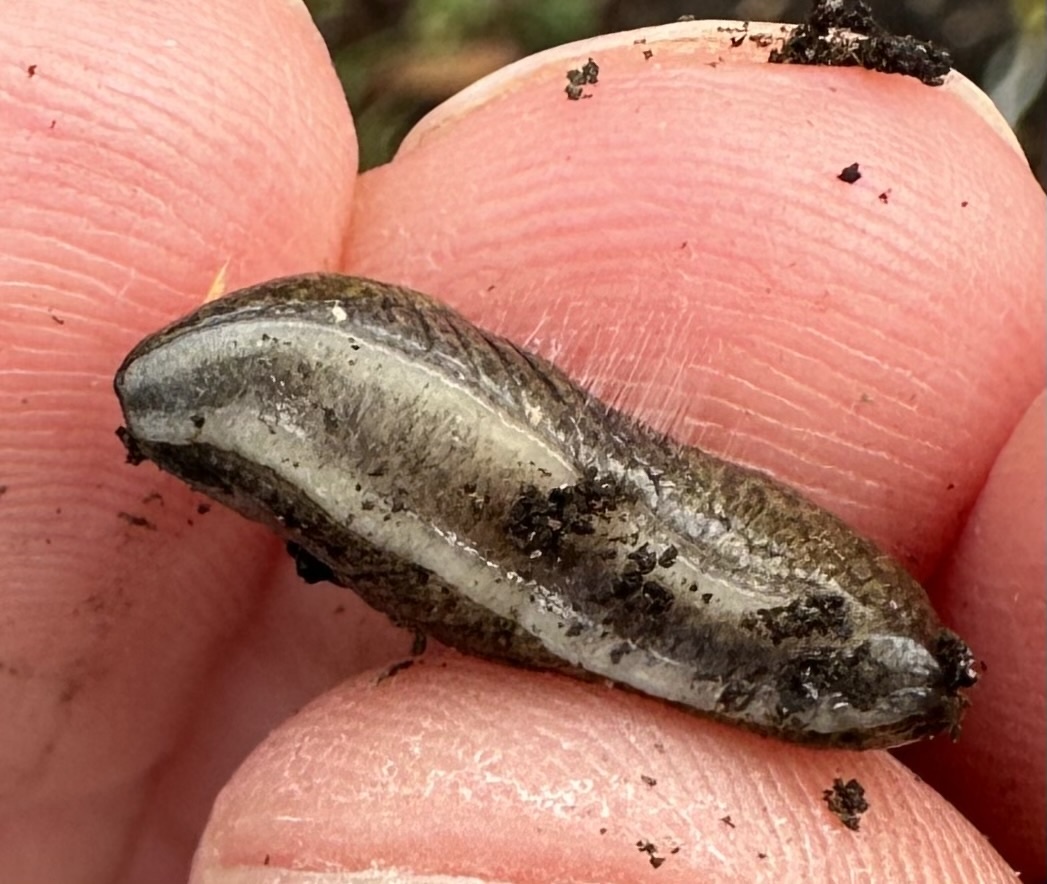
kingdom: Animalia
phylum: Mollusca
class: Gastropoda
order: Stylommatophora
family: Milacidae
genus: Tandonia
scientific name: Tandonia budapestensis
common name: Budapest slug
